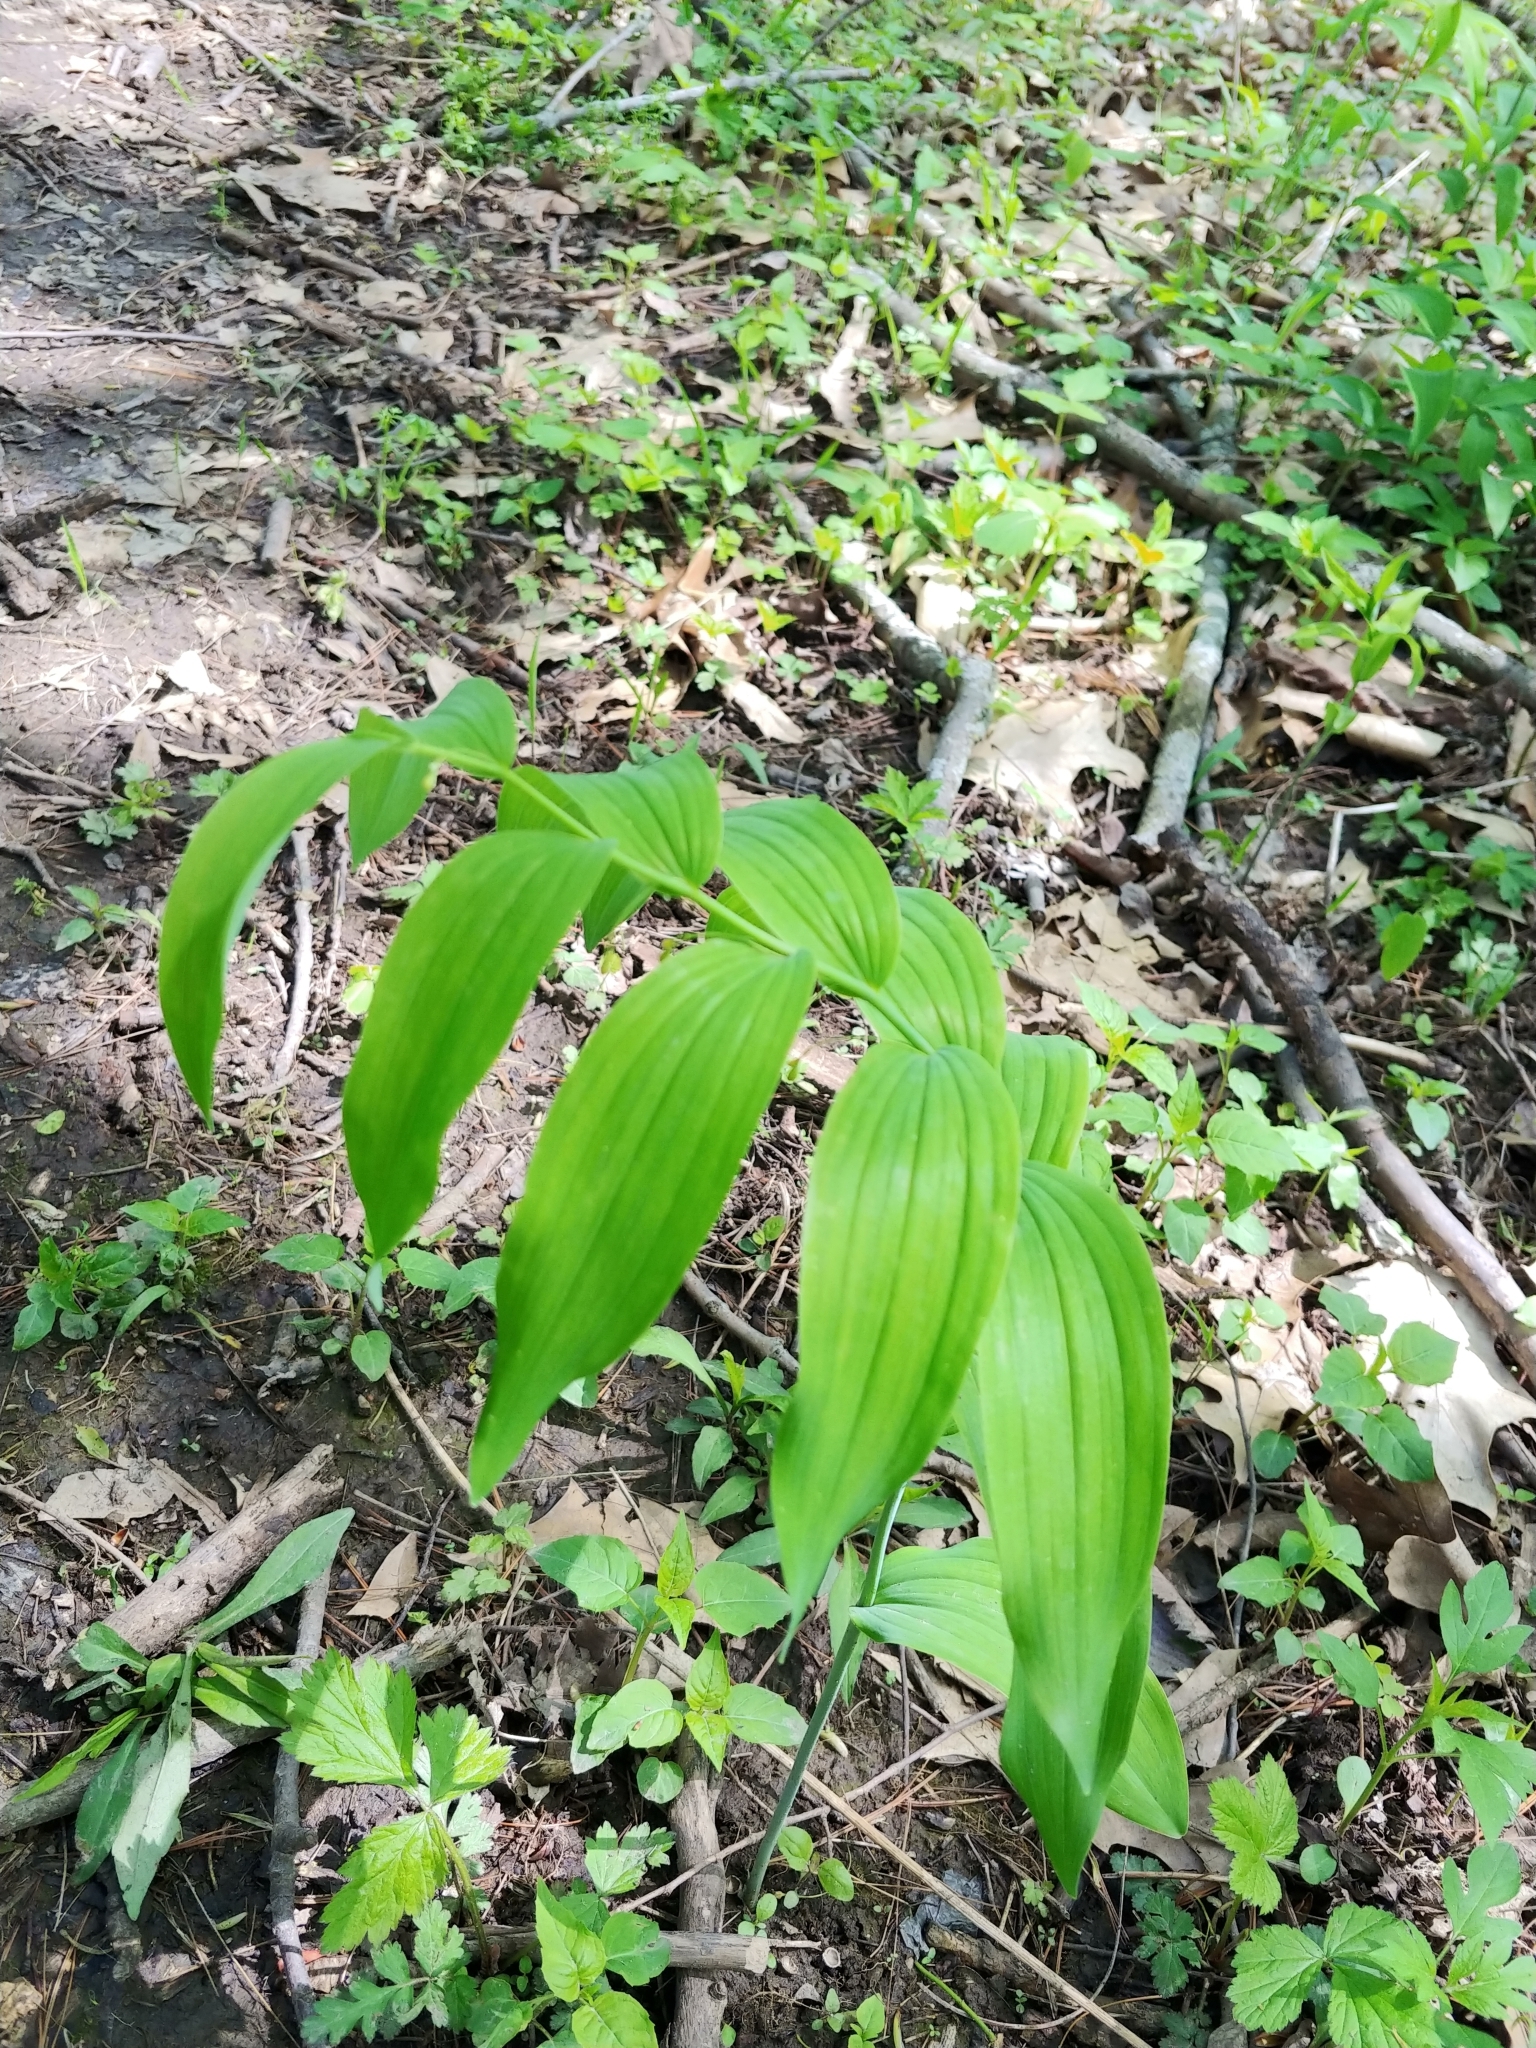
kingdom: Plantae
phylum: Tracheophyta
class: Liliopsida
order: Asparagales
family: Asparagaceae
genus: Polygonatum
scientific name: Polygonatum biflorum
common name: American solomon's-seal
